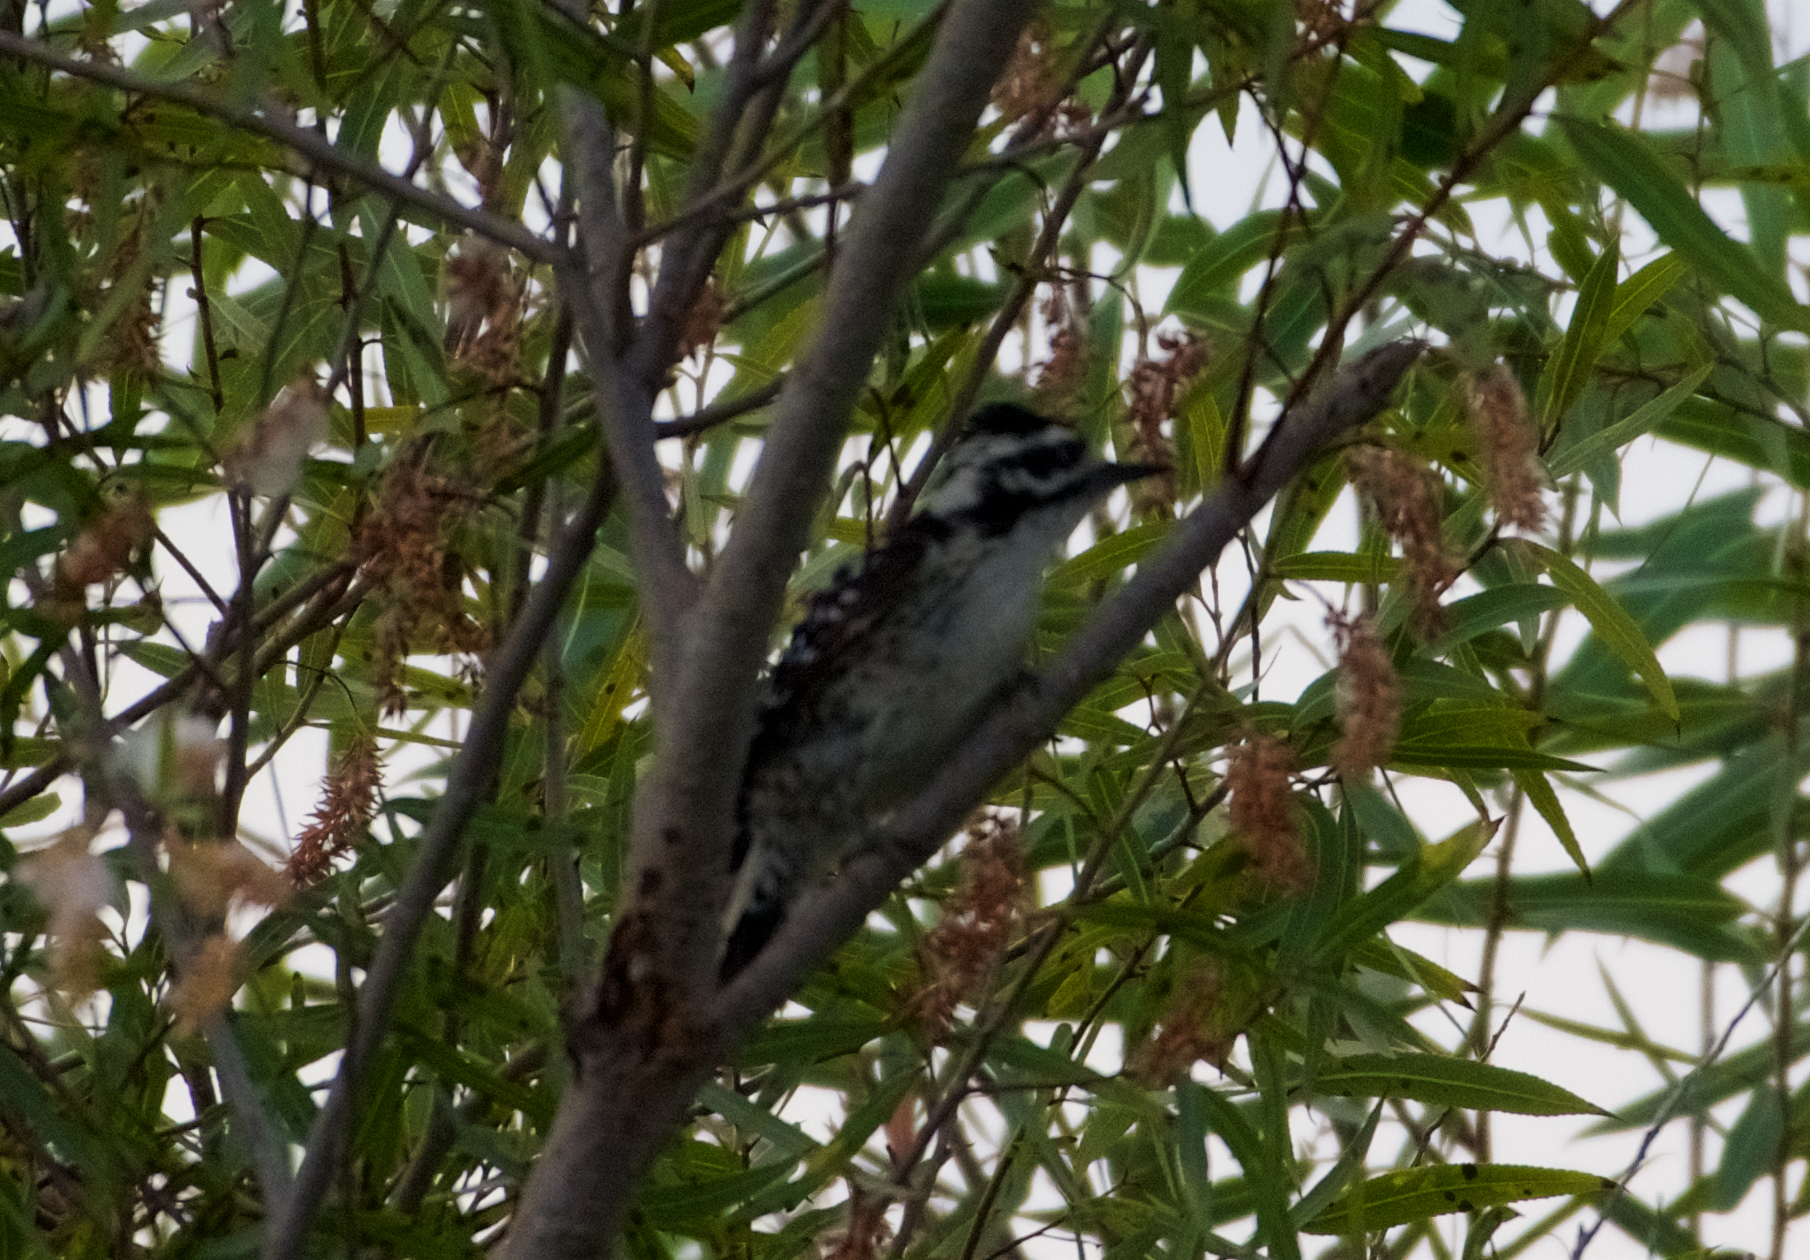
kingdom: Animalia
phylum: Chordata
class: Aves
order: Piciformes
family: Picidae
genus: Dryobates
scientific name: Dryobates nuttallii
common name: Nuttall's woodpecker
